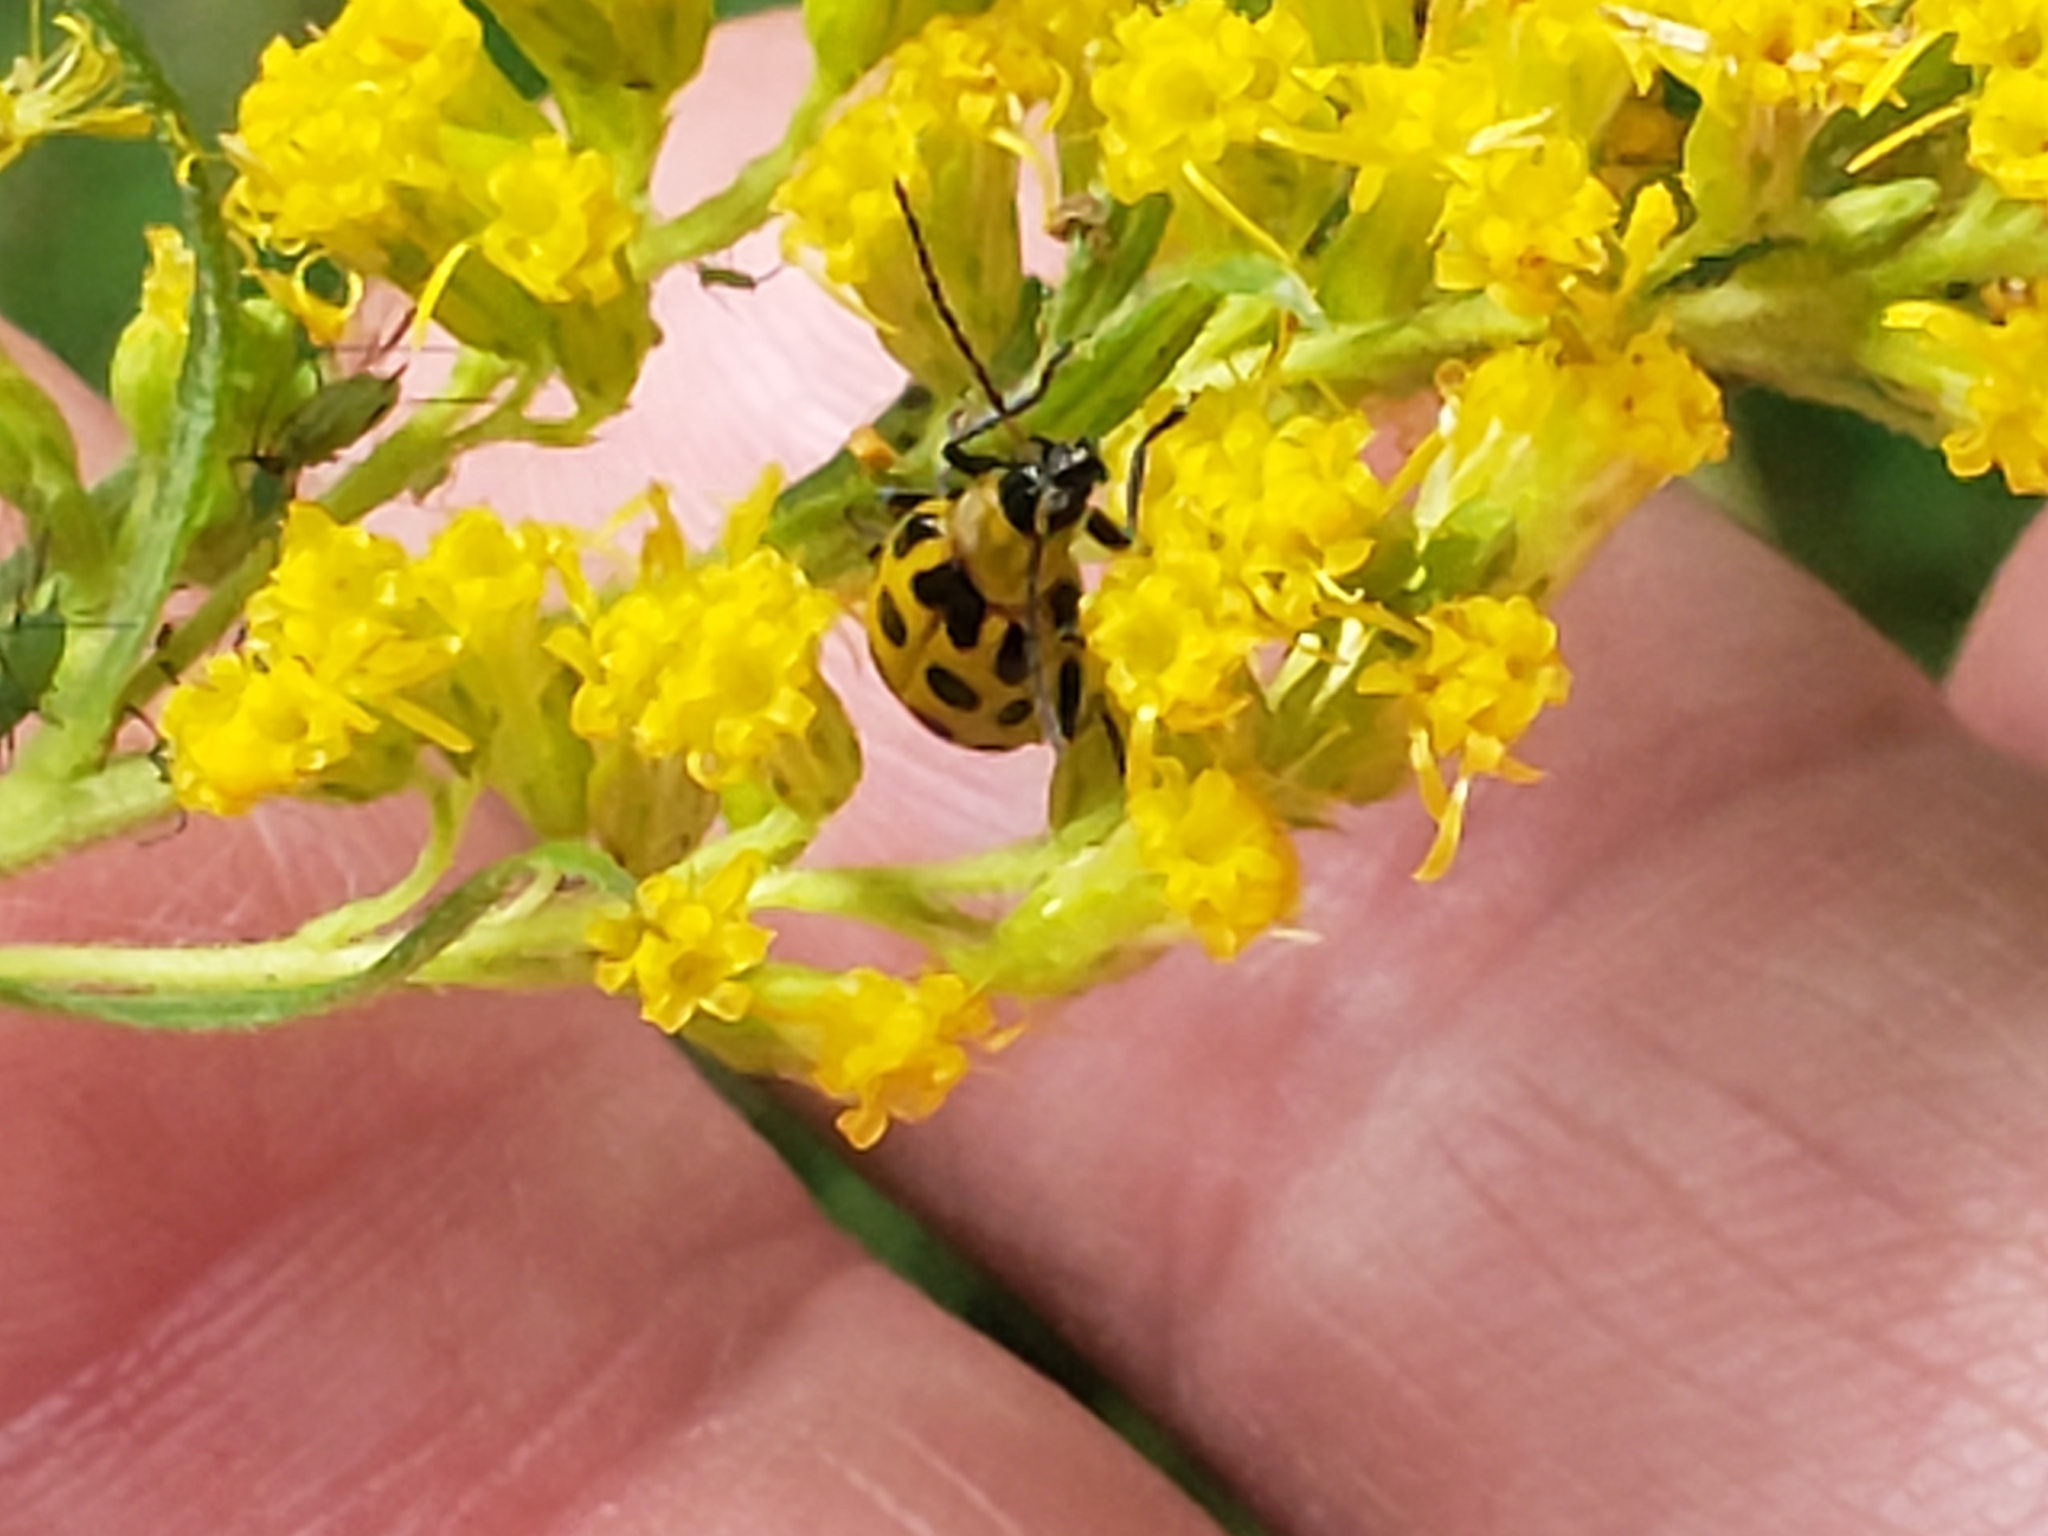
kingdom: Animalia
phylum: Arthropoda
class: Insecta
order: Coleoptera
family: Chrysomelidae
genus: Diabrotica
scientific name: Diabrotica undecimpunctata
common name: Spotted cucumber beetle
